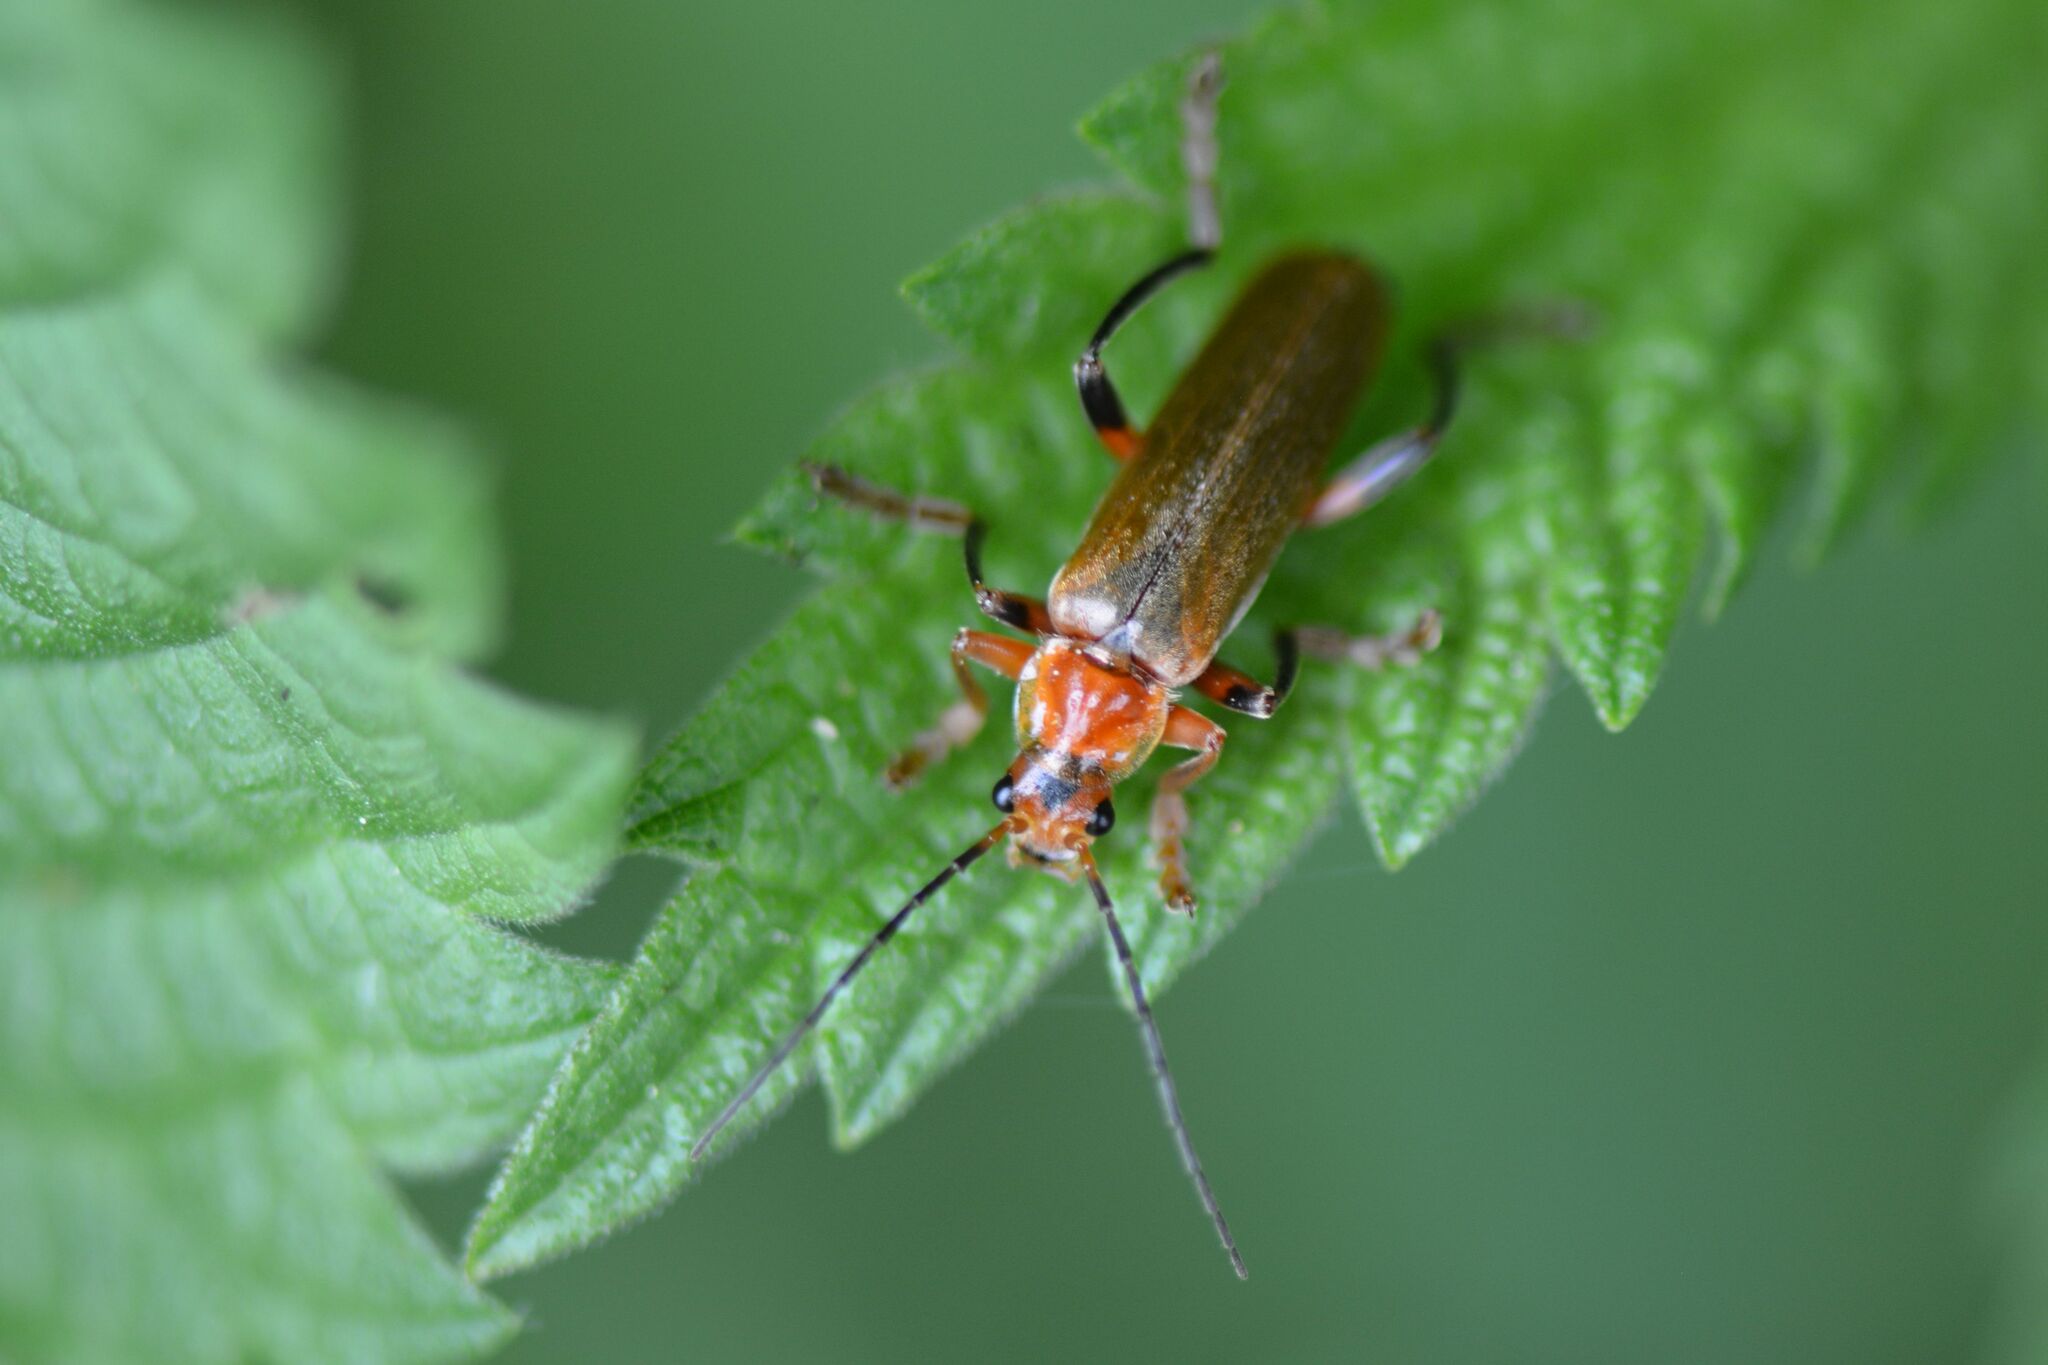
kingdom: Animalia
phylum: Arthropoda
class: Insecta
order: Coleoptera
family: Cantharidae
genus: Cantharis
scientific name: Cantharis livida
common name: Livid soldier beetle
